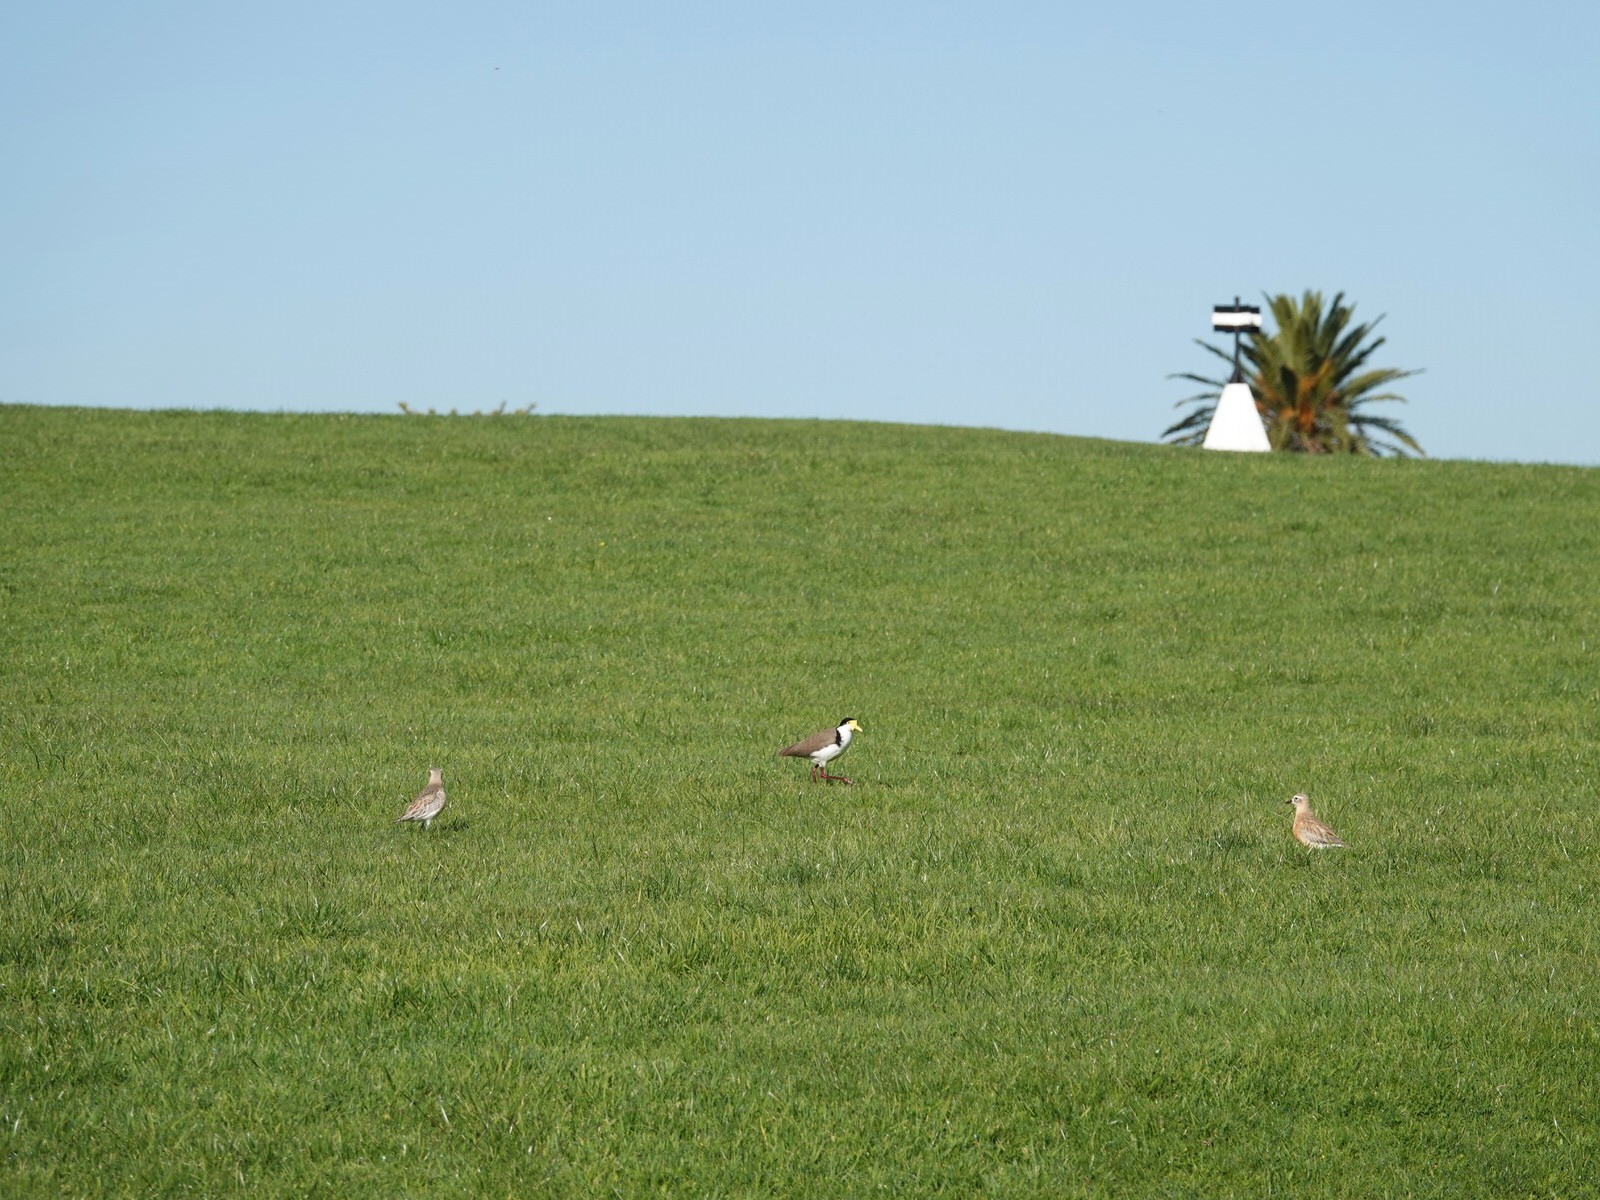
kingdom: Animalia
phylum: Chordata
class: Aves
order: Charadriiformes
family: Charadriidae
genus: Anarhynchus
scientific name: Anarhynchus
